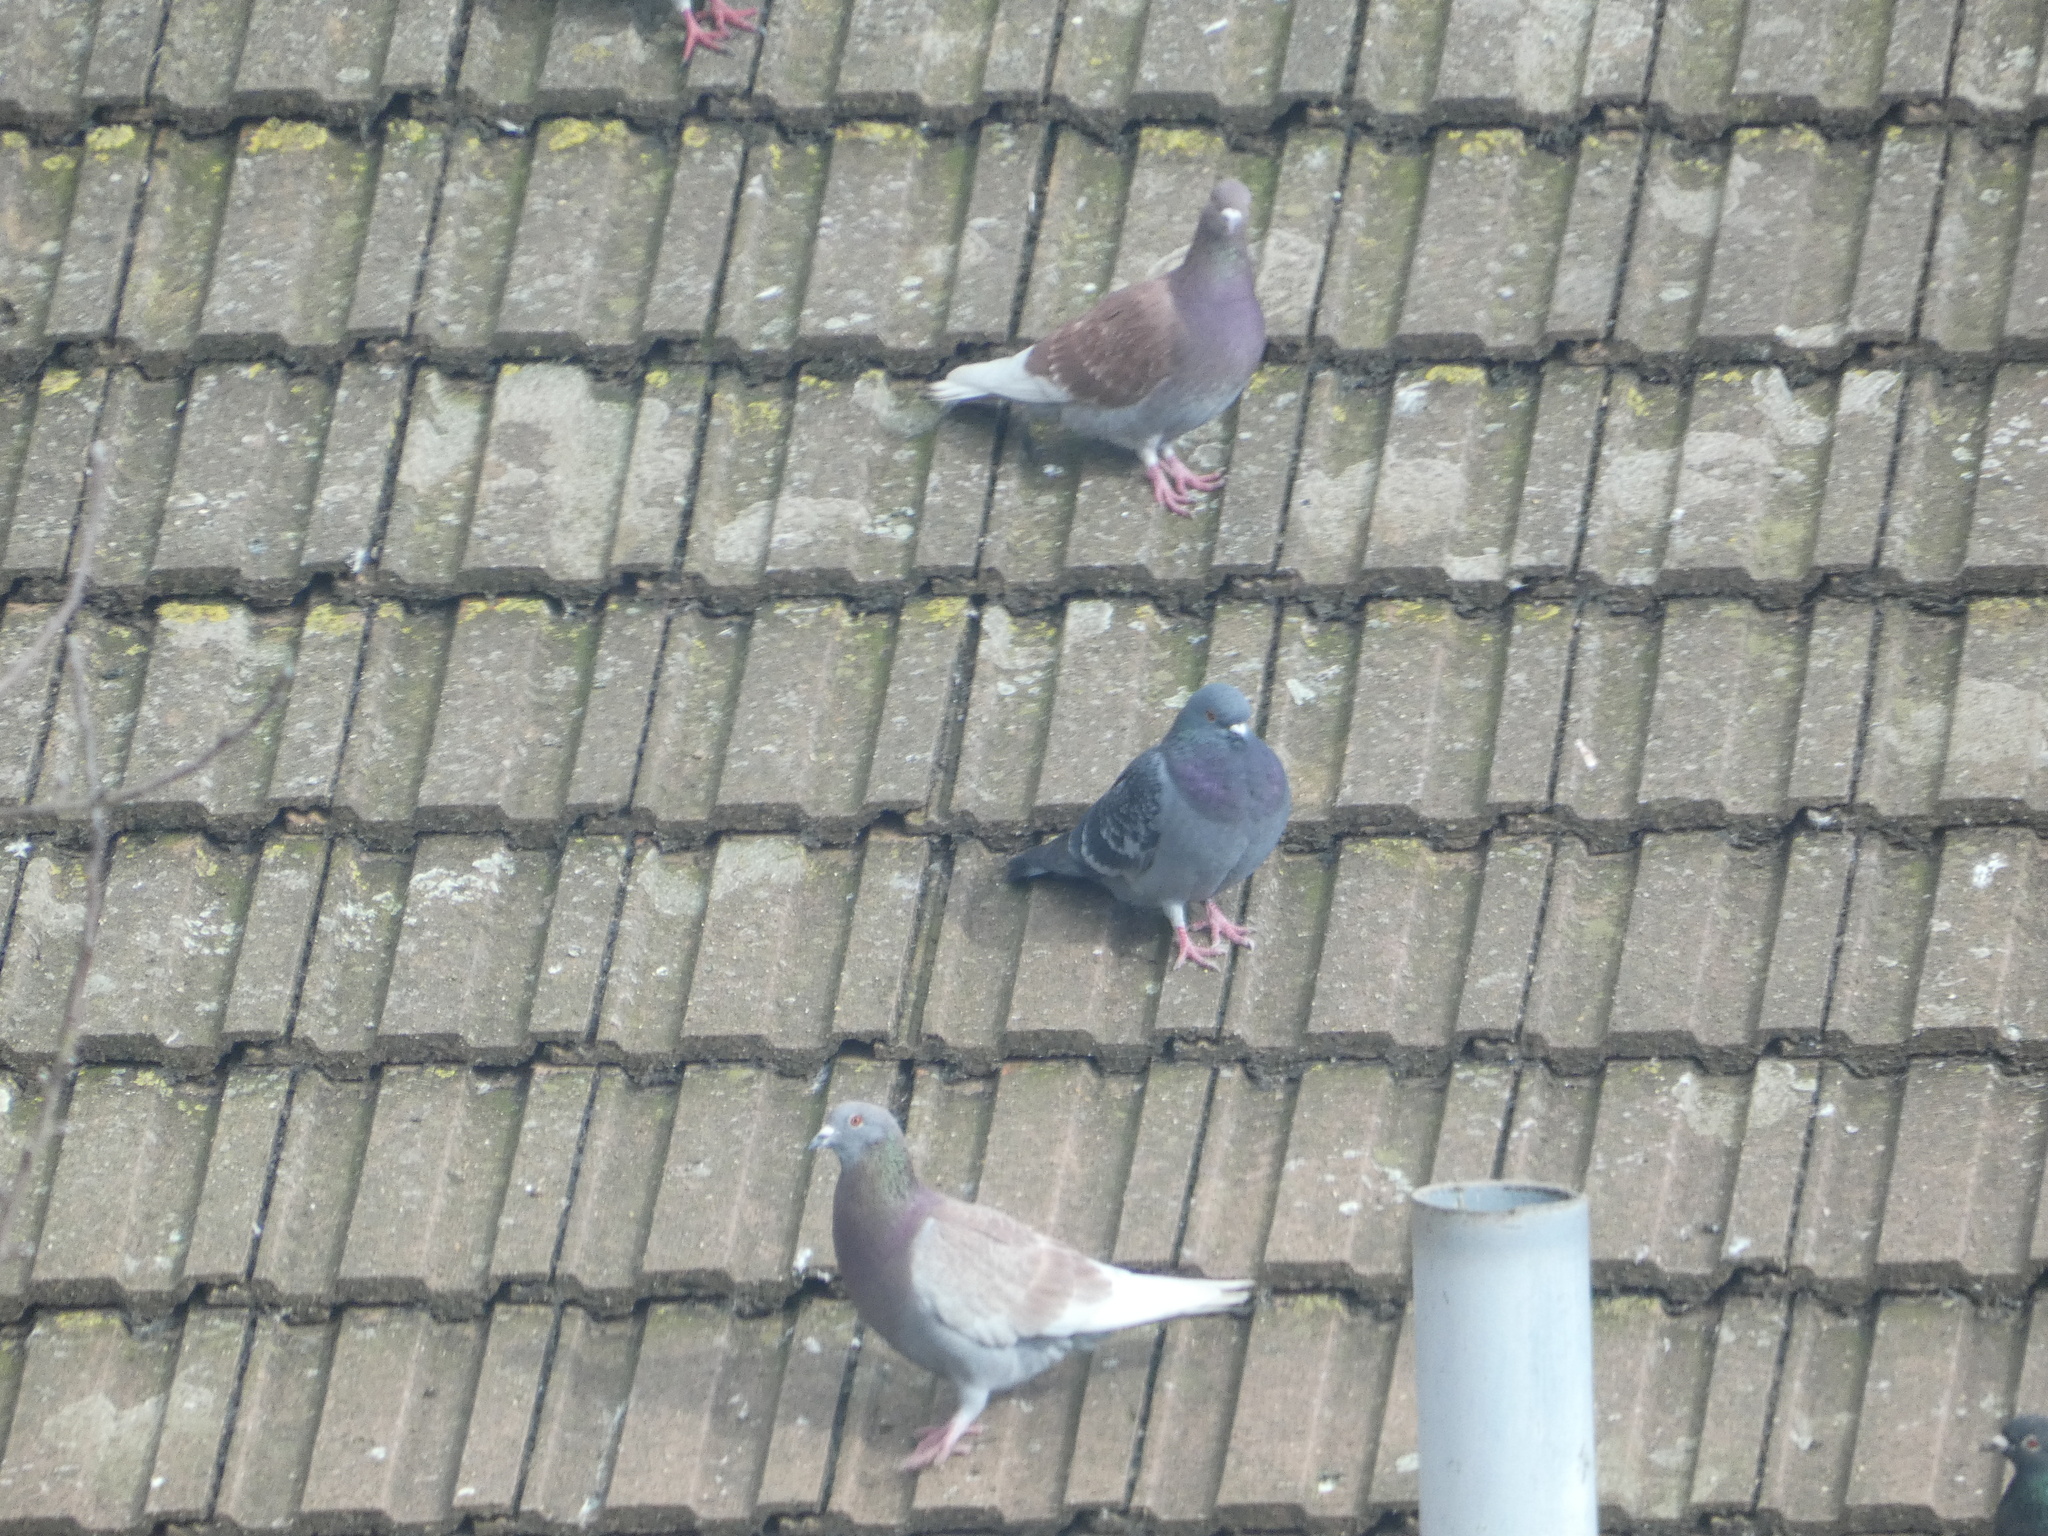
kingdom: Animalia
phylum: Chordata
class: Aves
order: Columbiformes
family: Columbidae
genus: Columba
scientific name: Columba livia
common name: Rock pigeon
